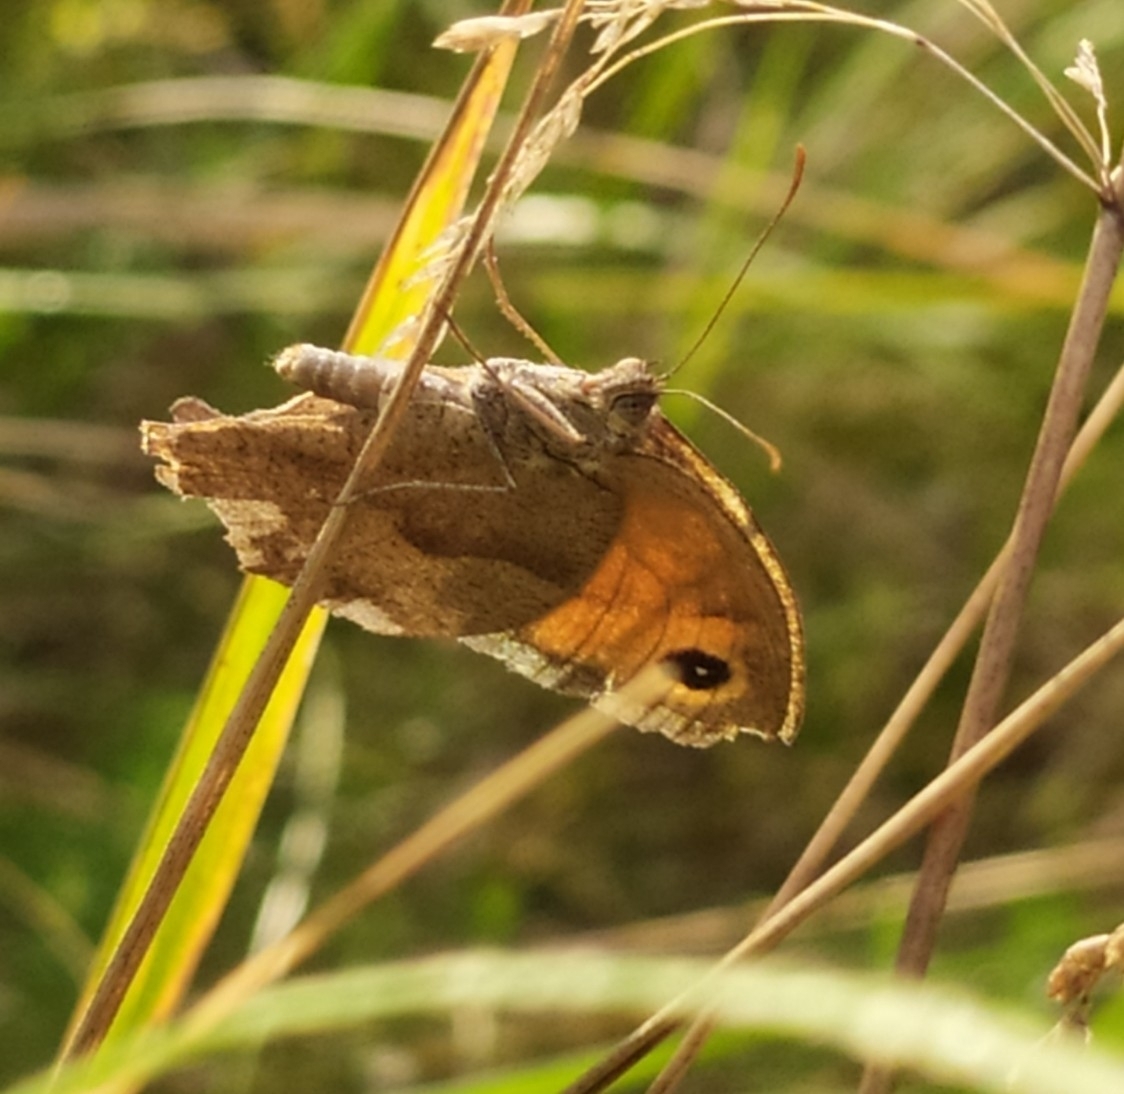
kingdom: Animalia
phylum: Arthropoda
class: Insecta
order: Lepidoptera
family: Nymphalidae
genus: Maniola
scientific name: Maniola jurtina
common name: Meadow brown
